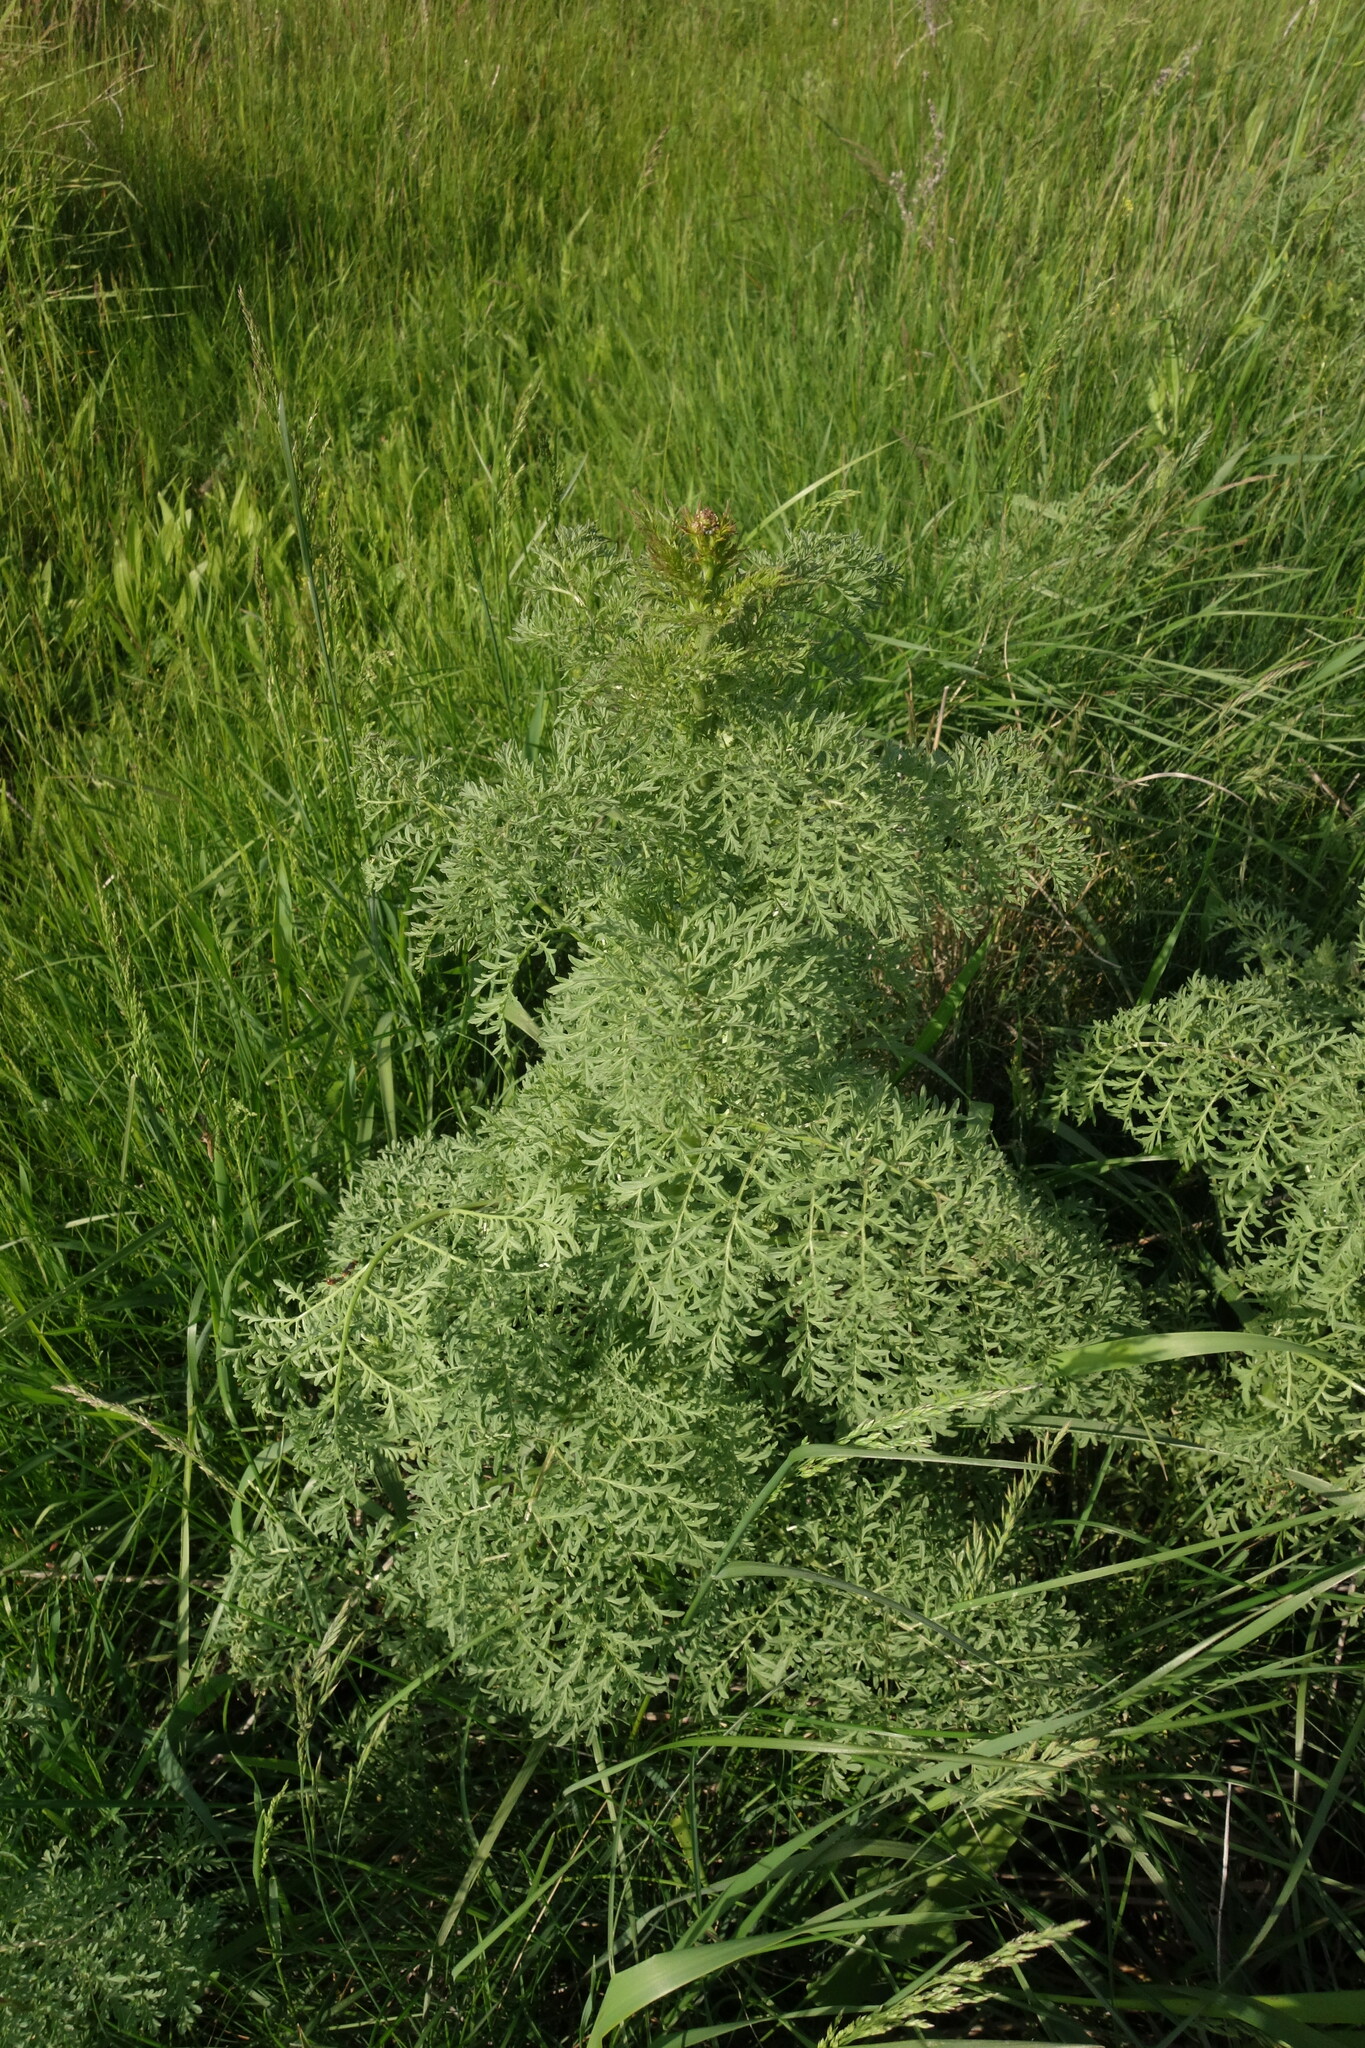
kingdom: Plantae
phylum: Tracheophyta
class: Magnoliopsida
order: Brassicales
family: Brassicaceae
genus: Descurainia
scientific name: Descurainia sophia
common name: Flixweed
